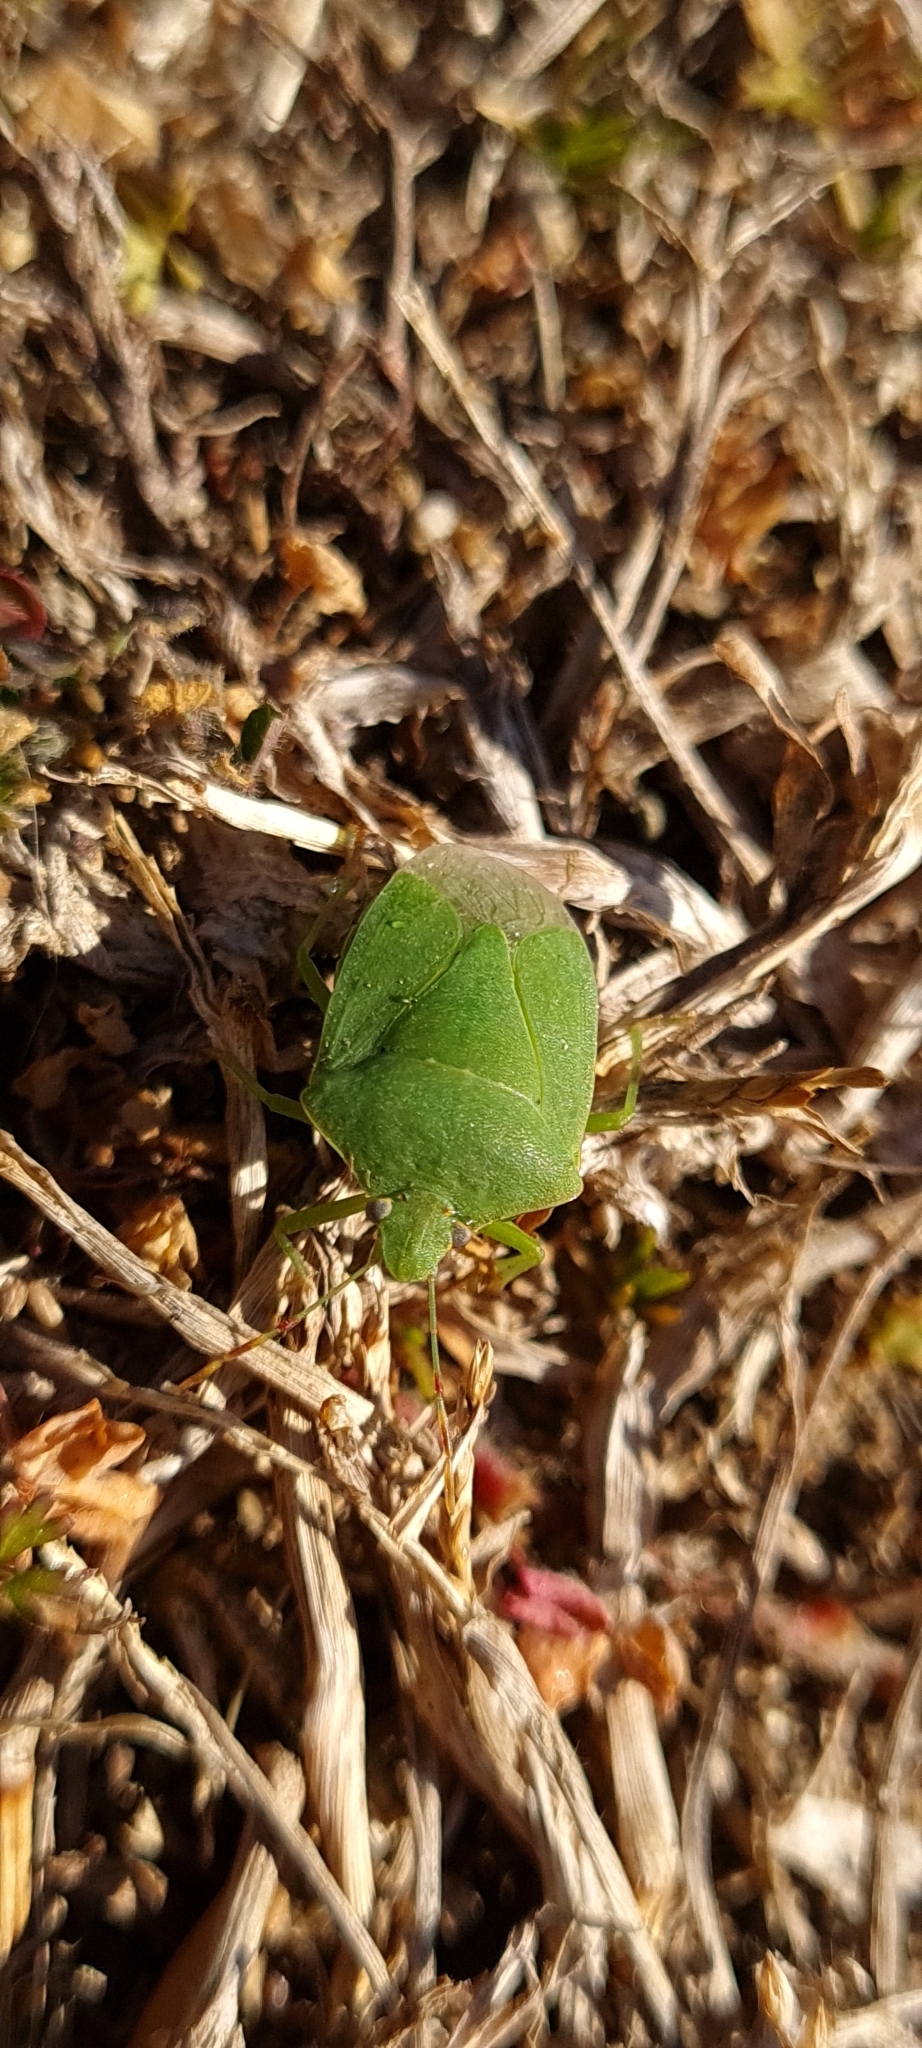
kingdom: Animalia
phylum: Arthropoda
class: Insecta
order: Hemiptera
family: Pentatomidae
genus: Nezara
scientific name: Nezara viridula
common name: Southern green stink bug
